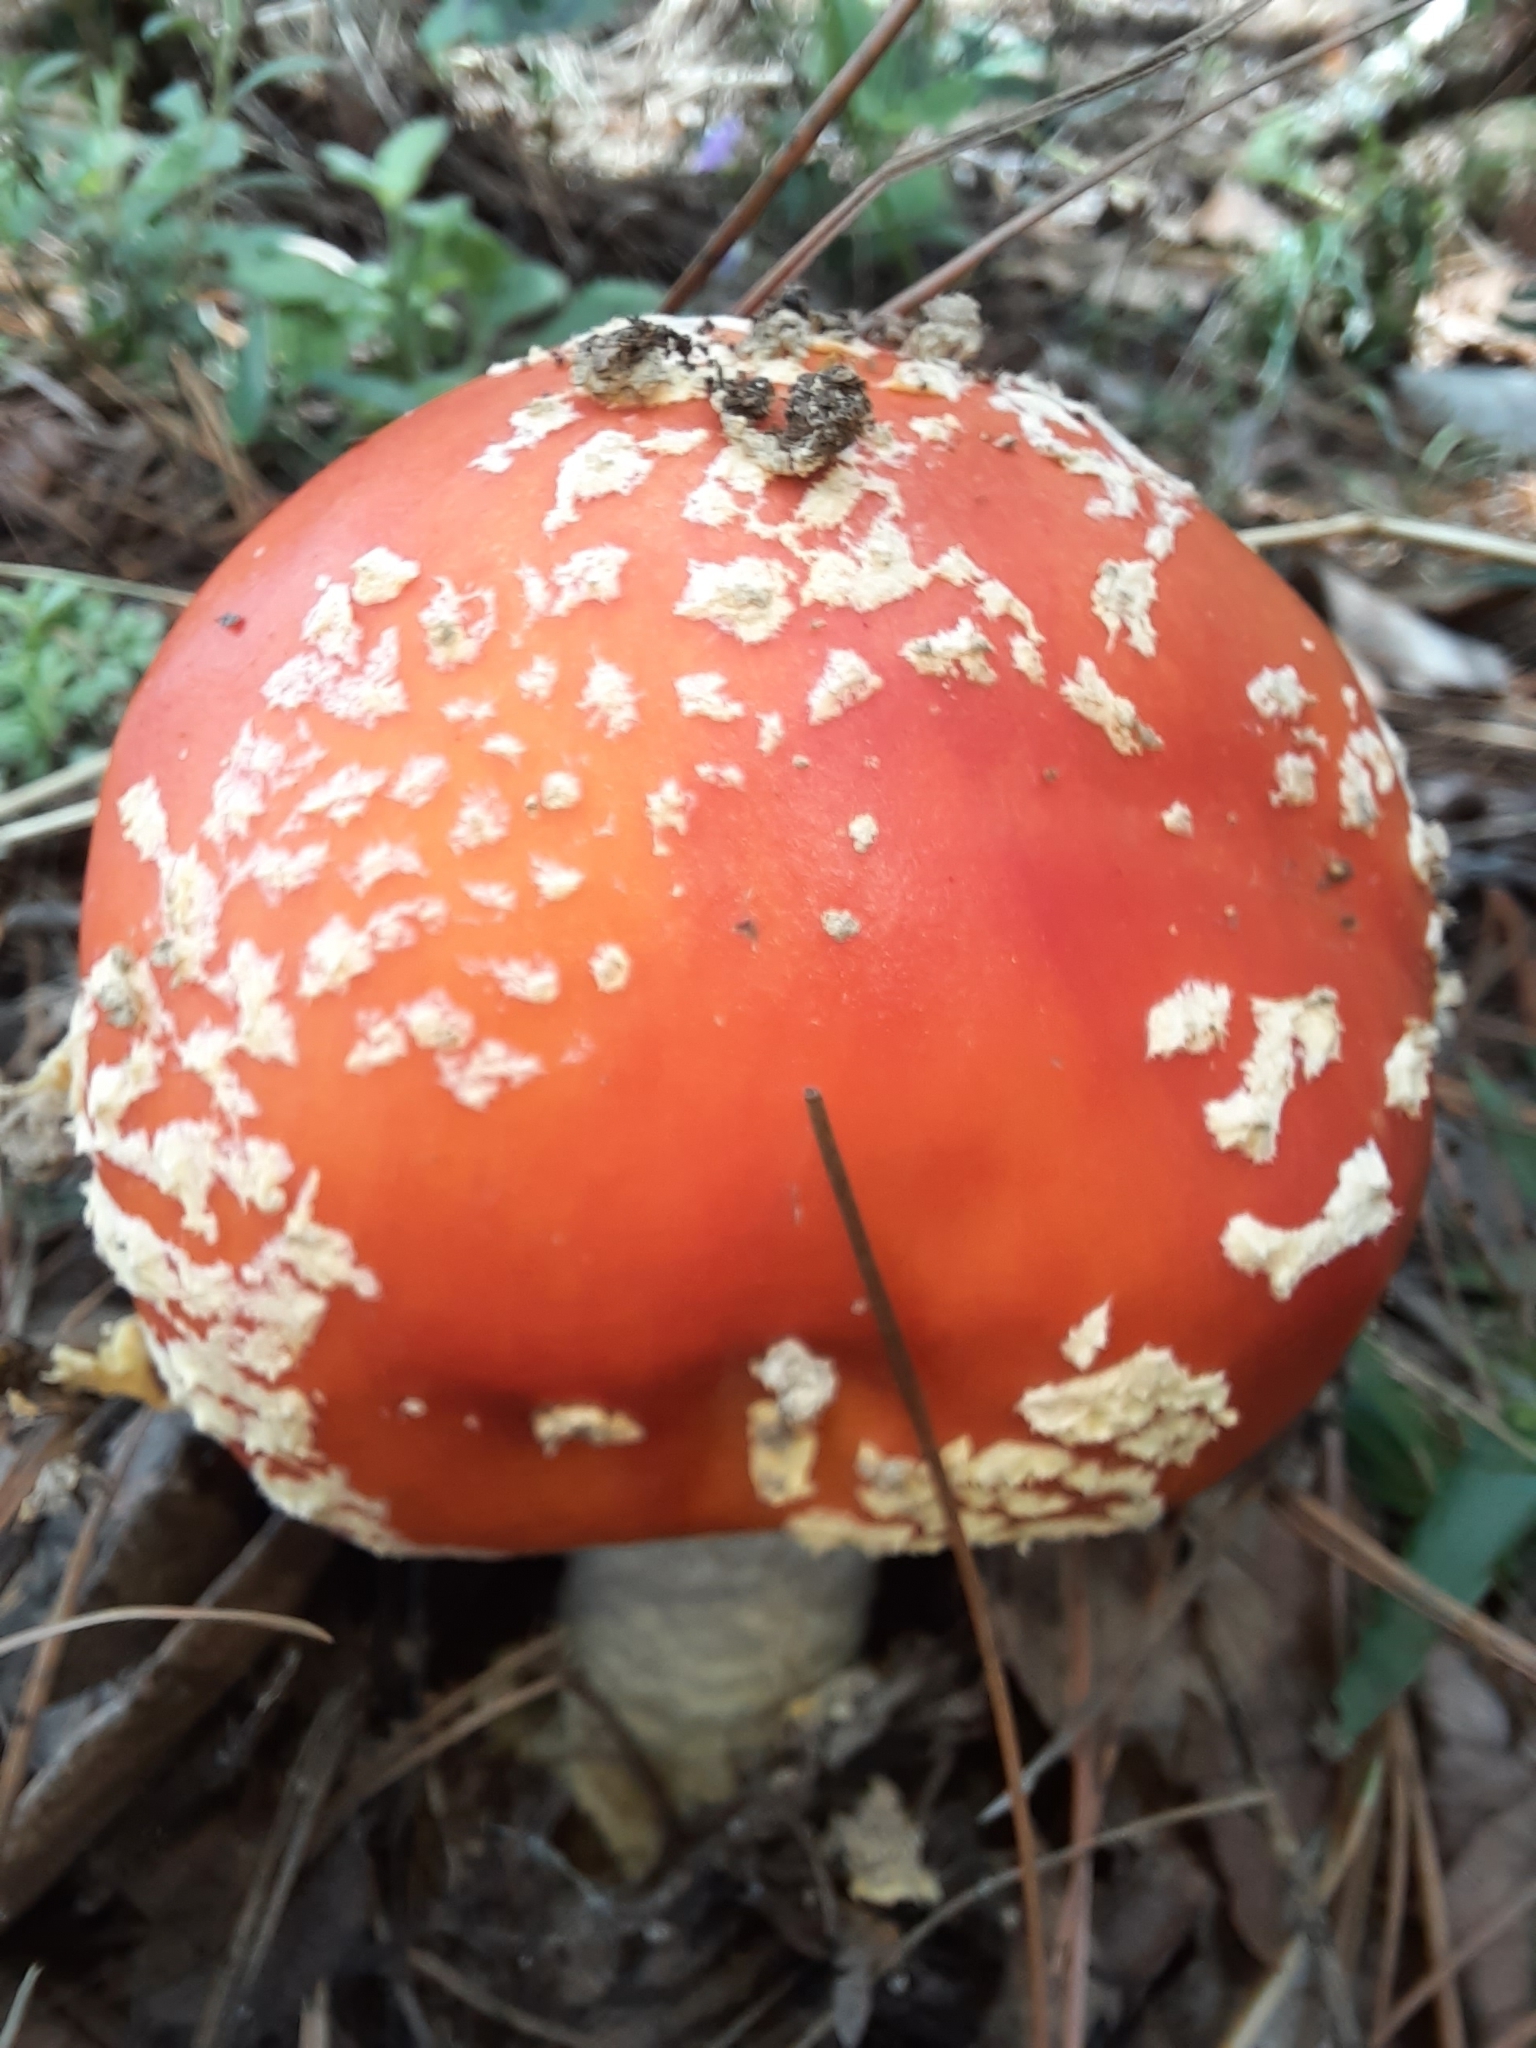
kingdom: Fungi
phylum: Basidiomycota
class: Agaricomycetes
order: Agaricales
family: Amanitaceae
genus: Amanita
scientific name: Amanita muscaria
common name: Fly agaric
